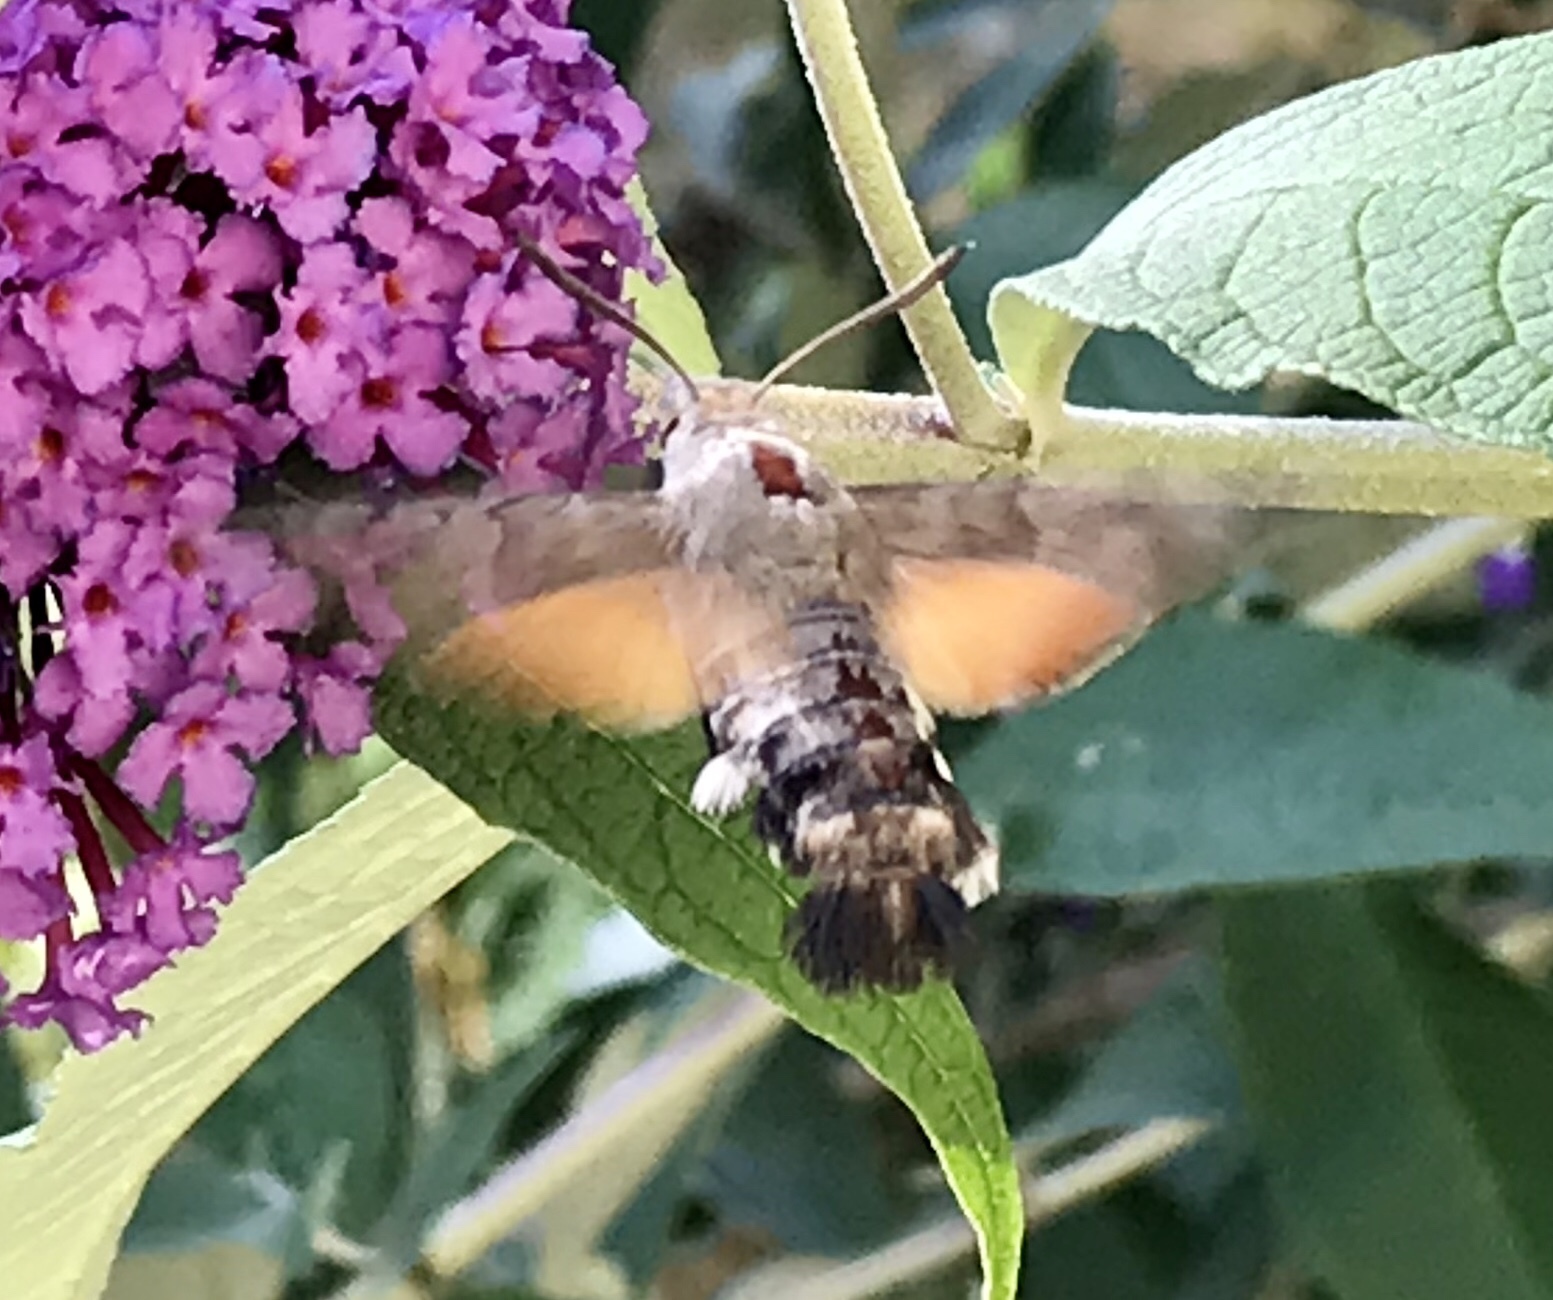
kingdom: Animalia
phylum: Arthropoda
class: Insecta
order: Lepidoptera
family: Sphingidae
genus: Macroglossum
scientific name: Macroglossum stellatarum
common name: Humming-bird hawk-moth
